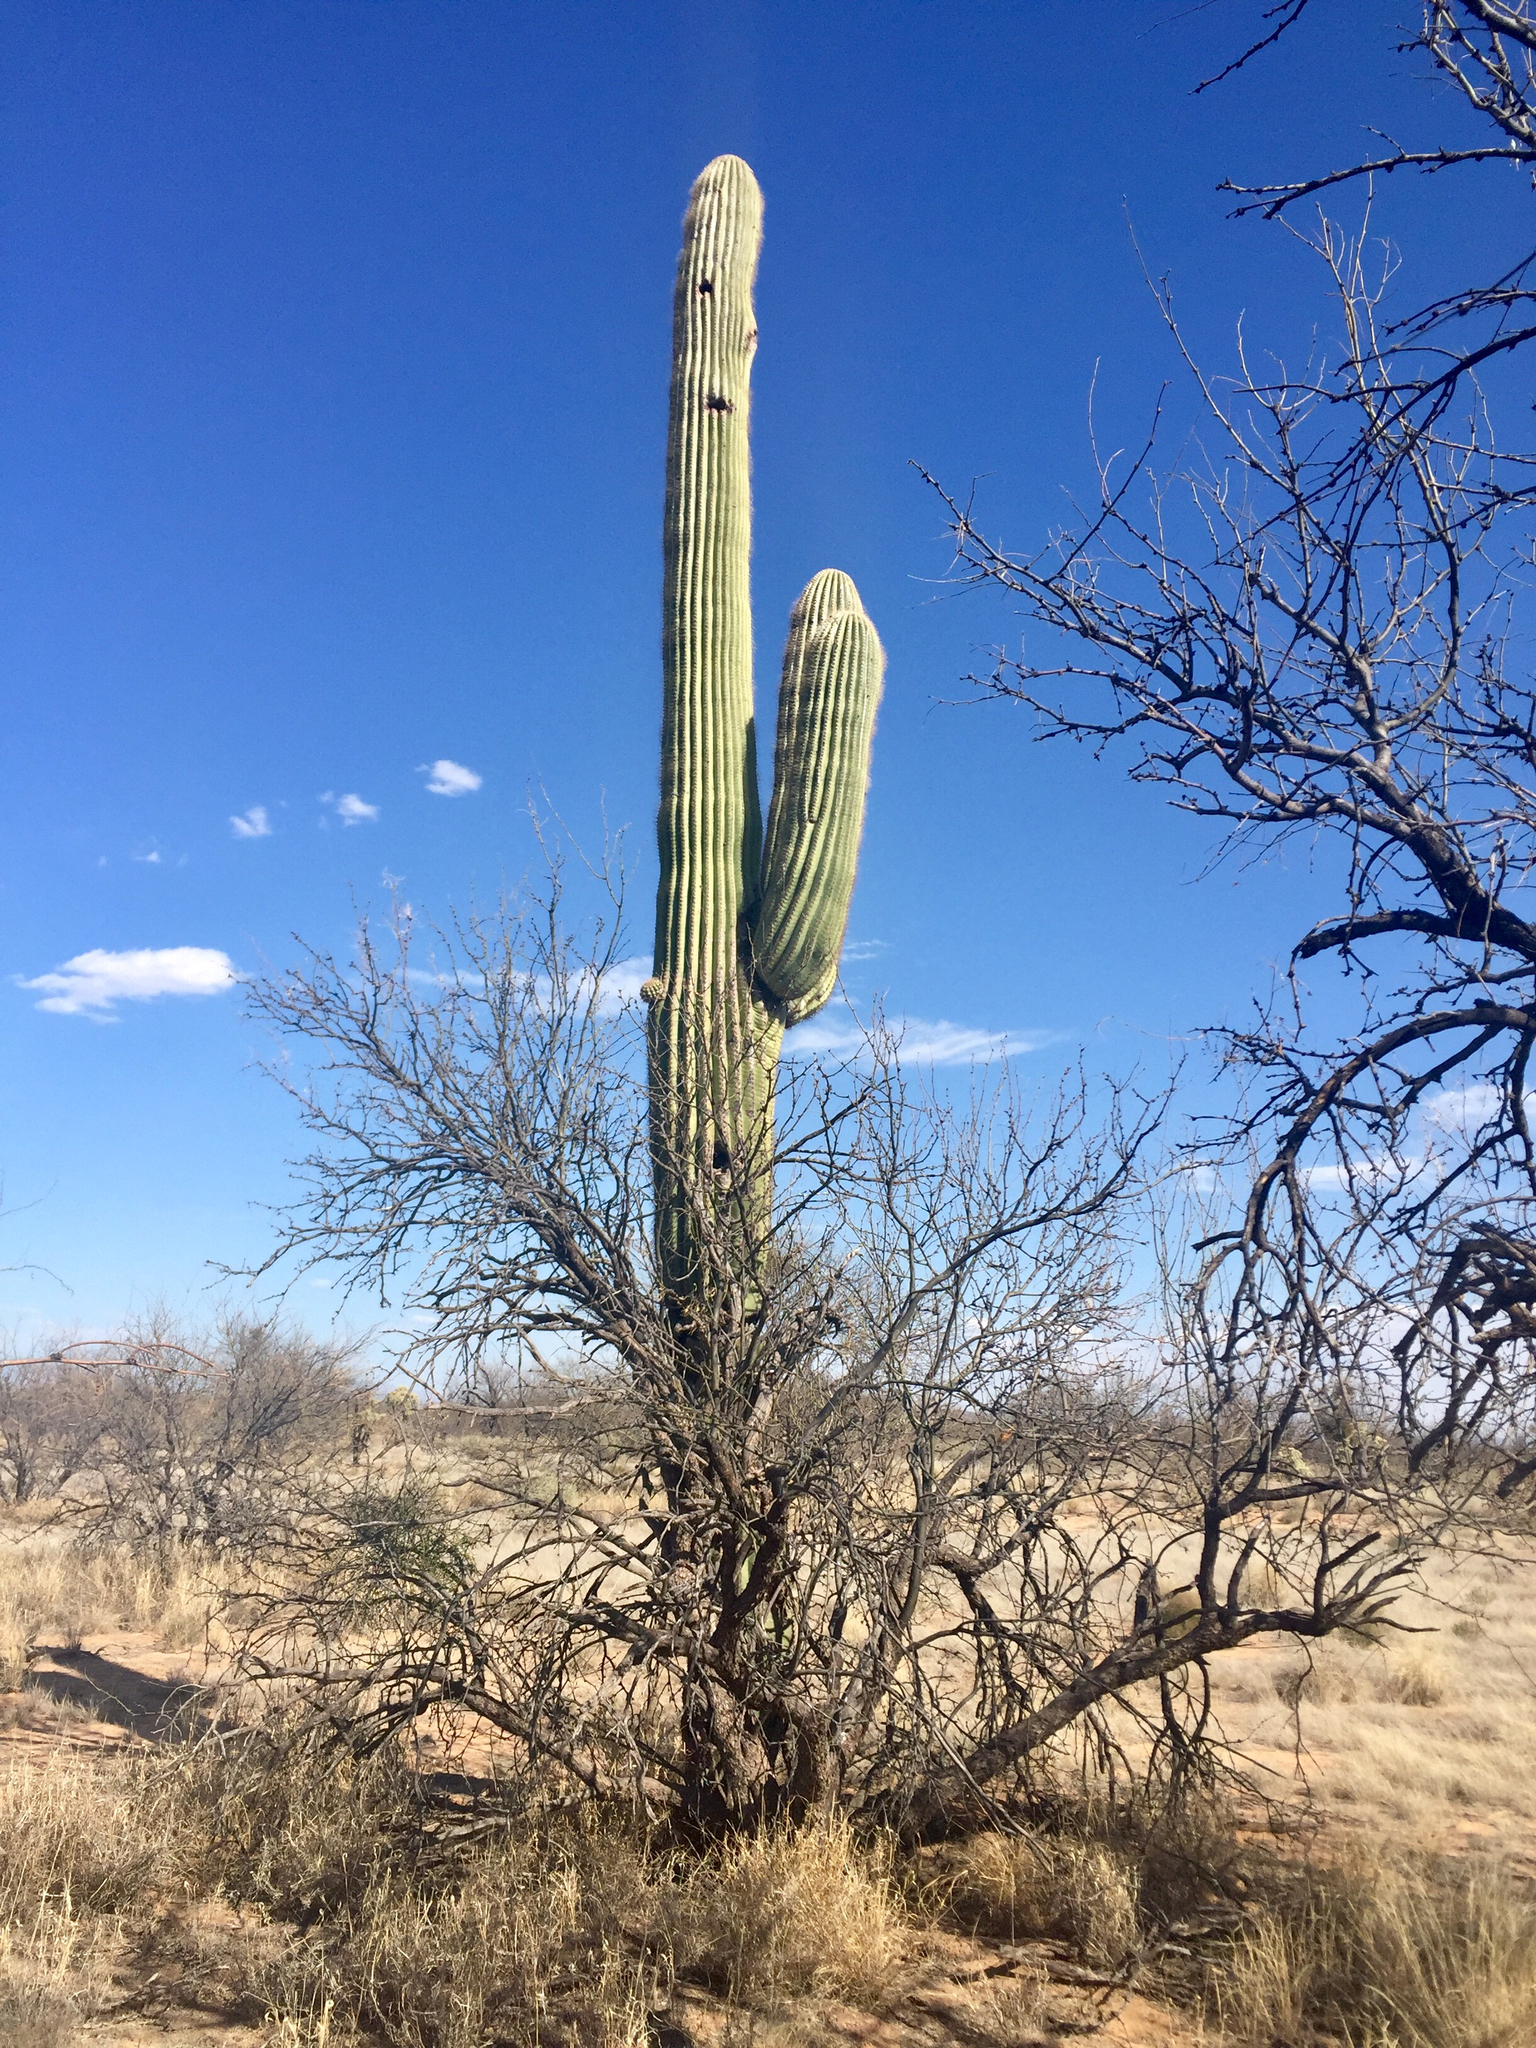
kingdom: Plantae
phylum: Tracheophyta
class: Magnoliopsida
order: Caryophyllales
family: Cactaceae
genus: Carnegiea
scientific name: Carnegiea gigantea
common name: Saguaro
